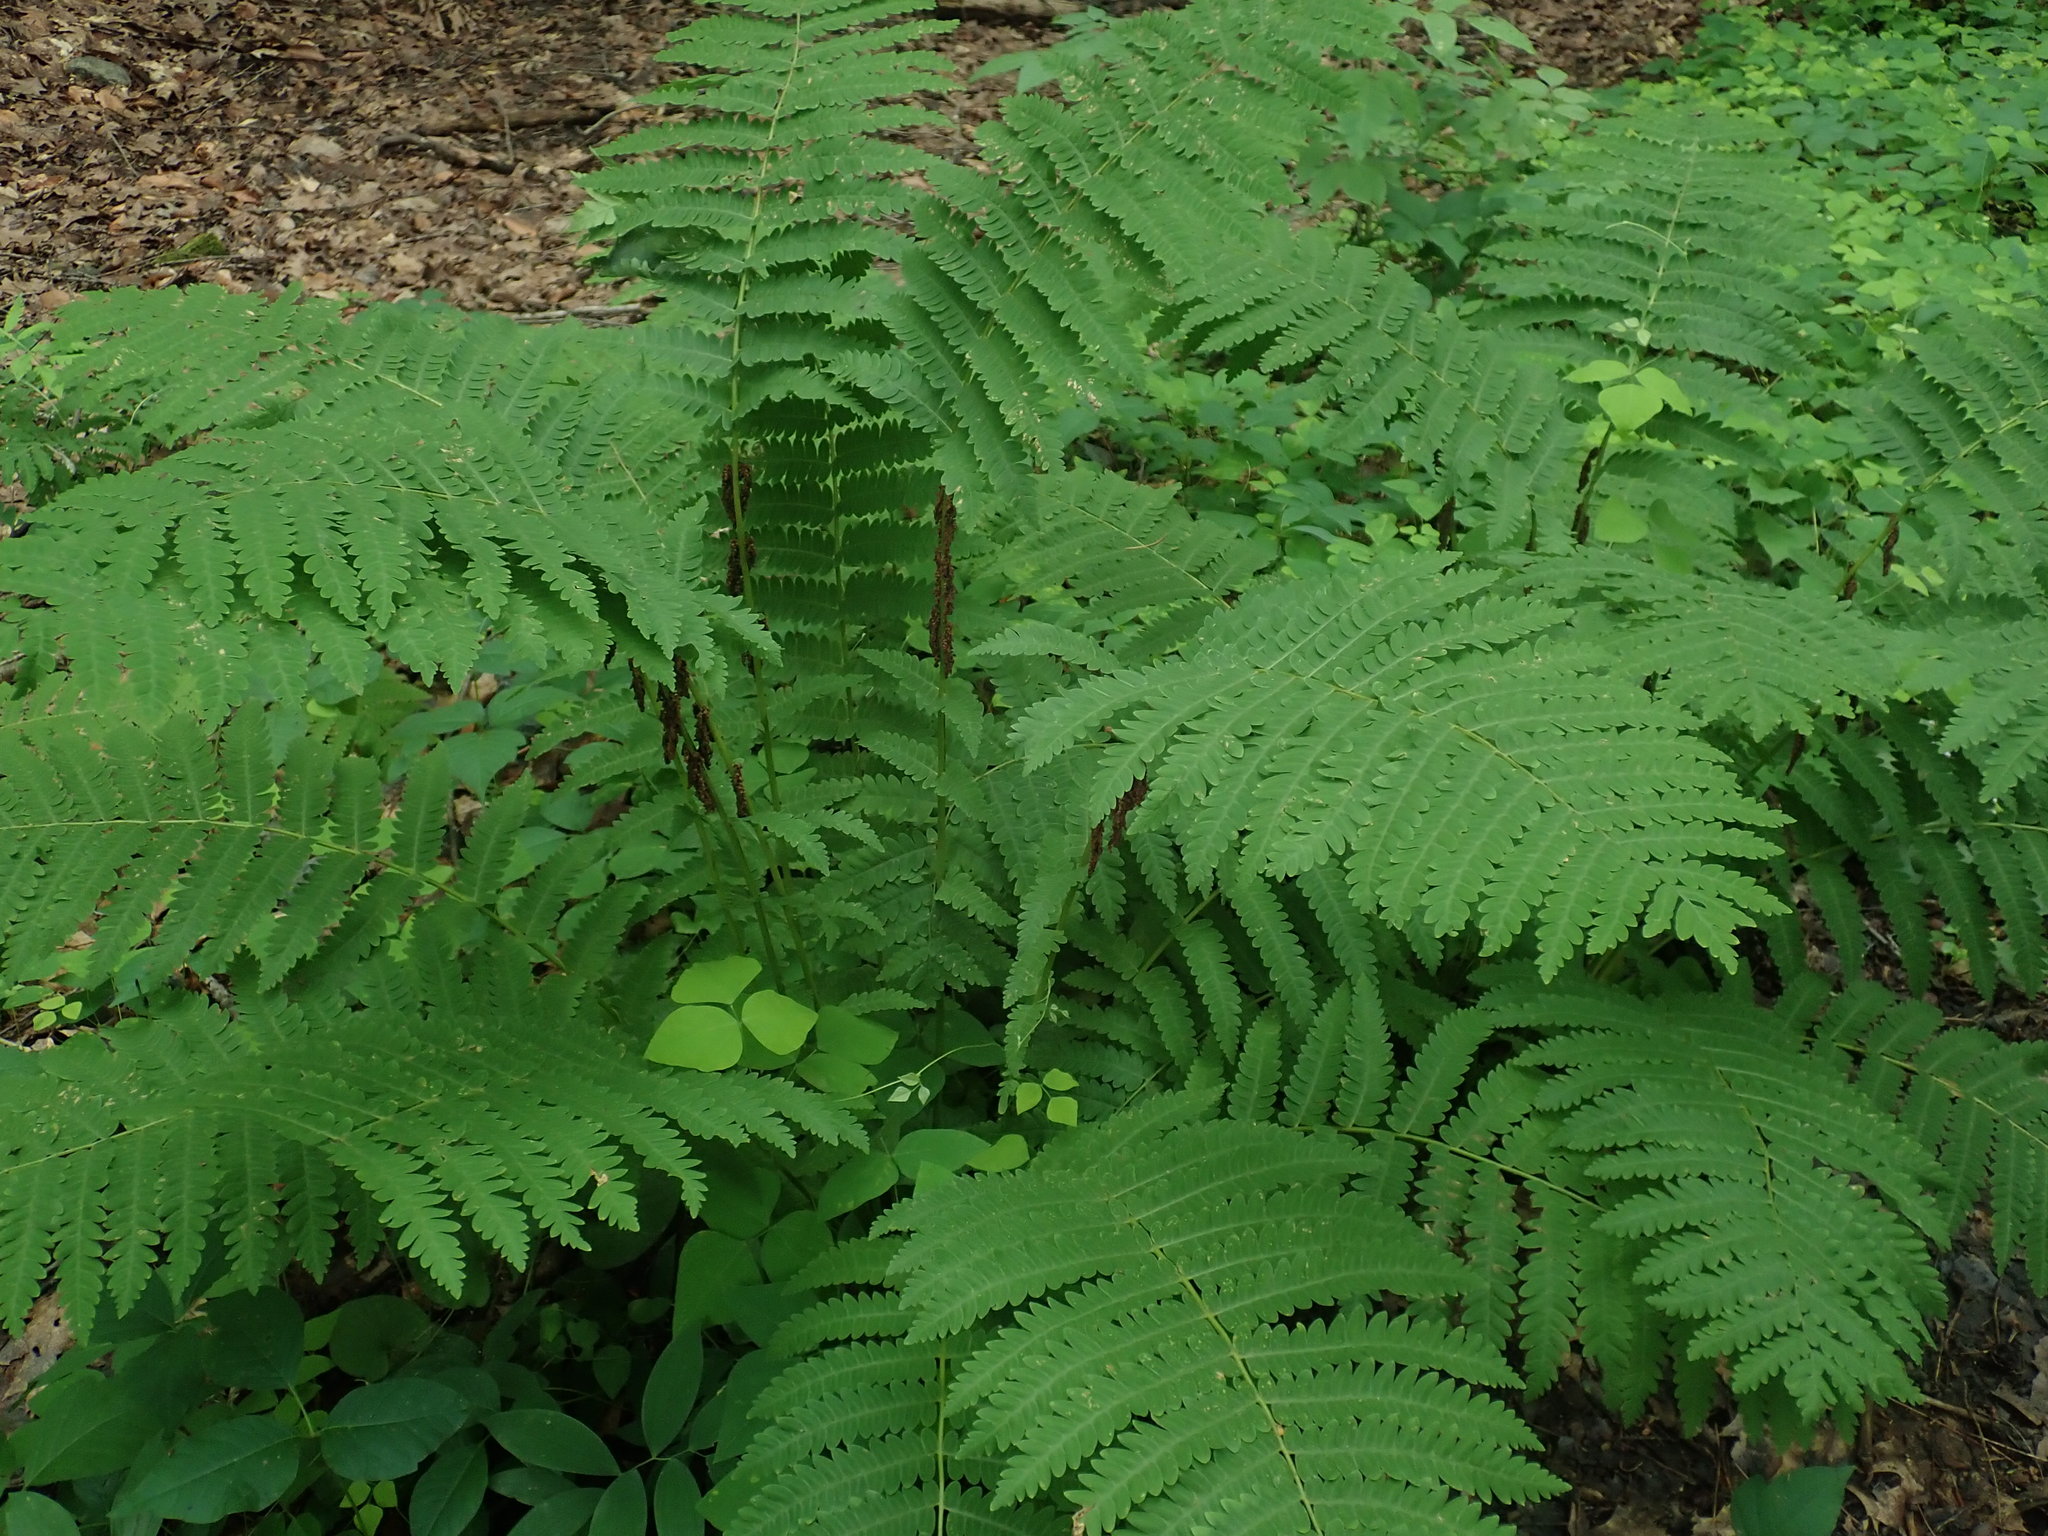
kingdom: Plantae
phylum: Tracheophyta
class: Polypodiopsida
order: Osmundales
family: Osmundaceae
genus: Claytosmunda
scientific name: Claytosmunda claytoniana
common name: Clayton's fern
